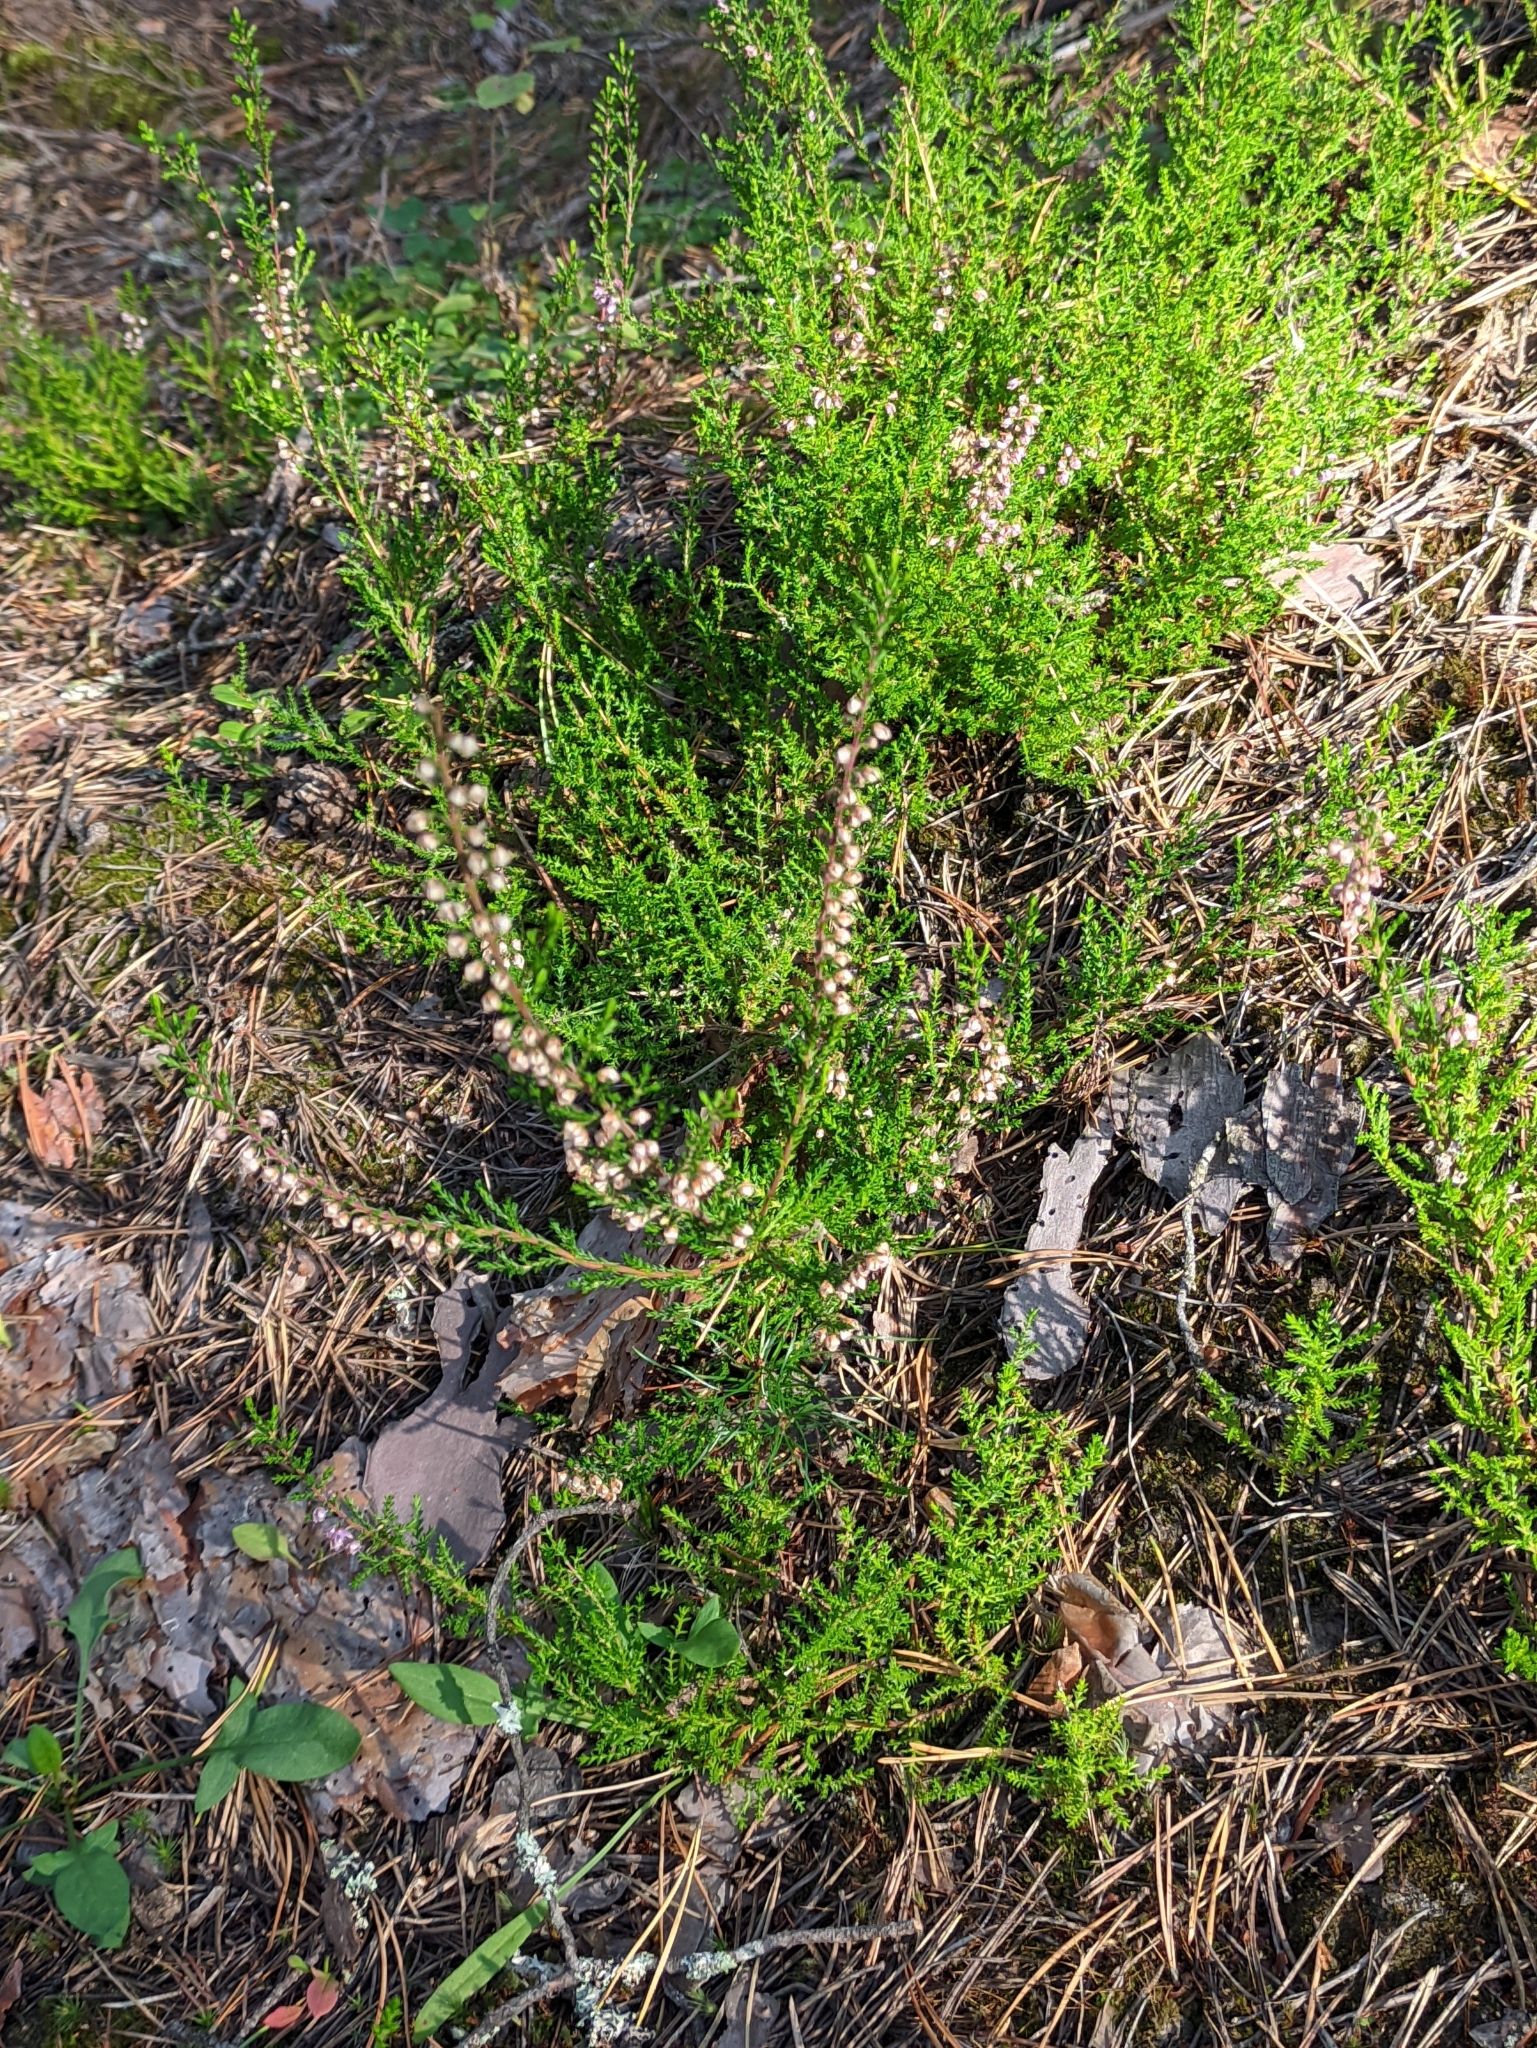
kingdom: Plantae
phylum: Tracheophyta
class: Magnoliopsida
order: Ericales
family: Ericaceae
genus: Calluna
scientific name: Calluna vulgaris
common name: Heather
